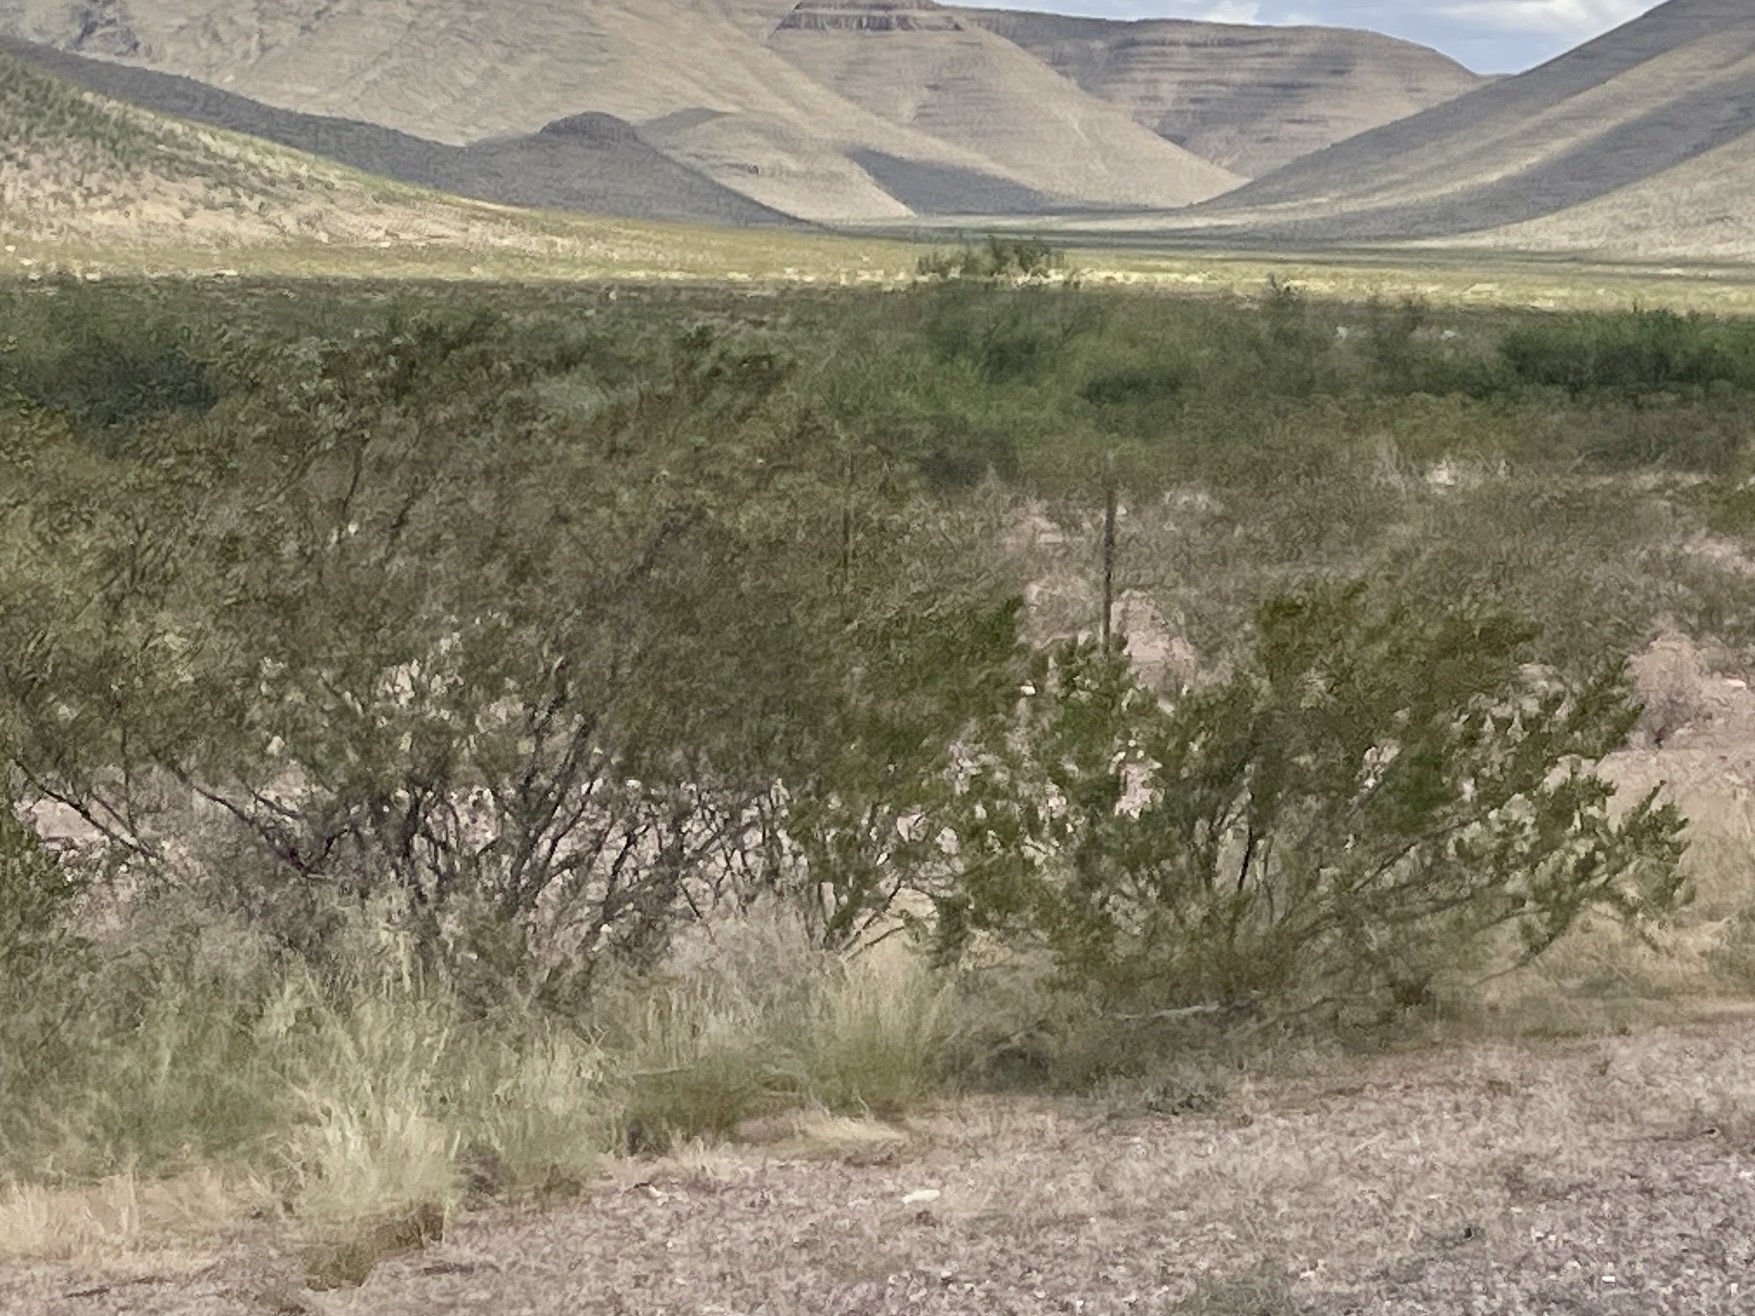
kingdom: Plantae
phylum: Tracheophyta
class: Magnoliopsida
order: Zygophyllales
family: Zygophyllaceae
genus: Larrea
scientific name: Larrea tridentata
